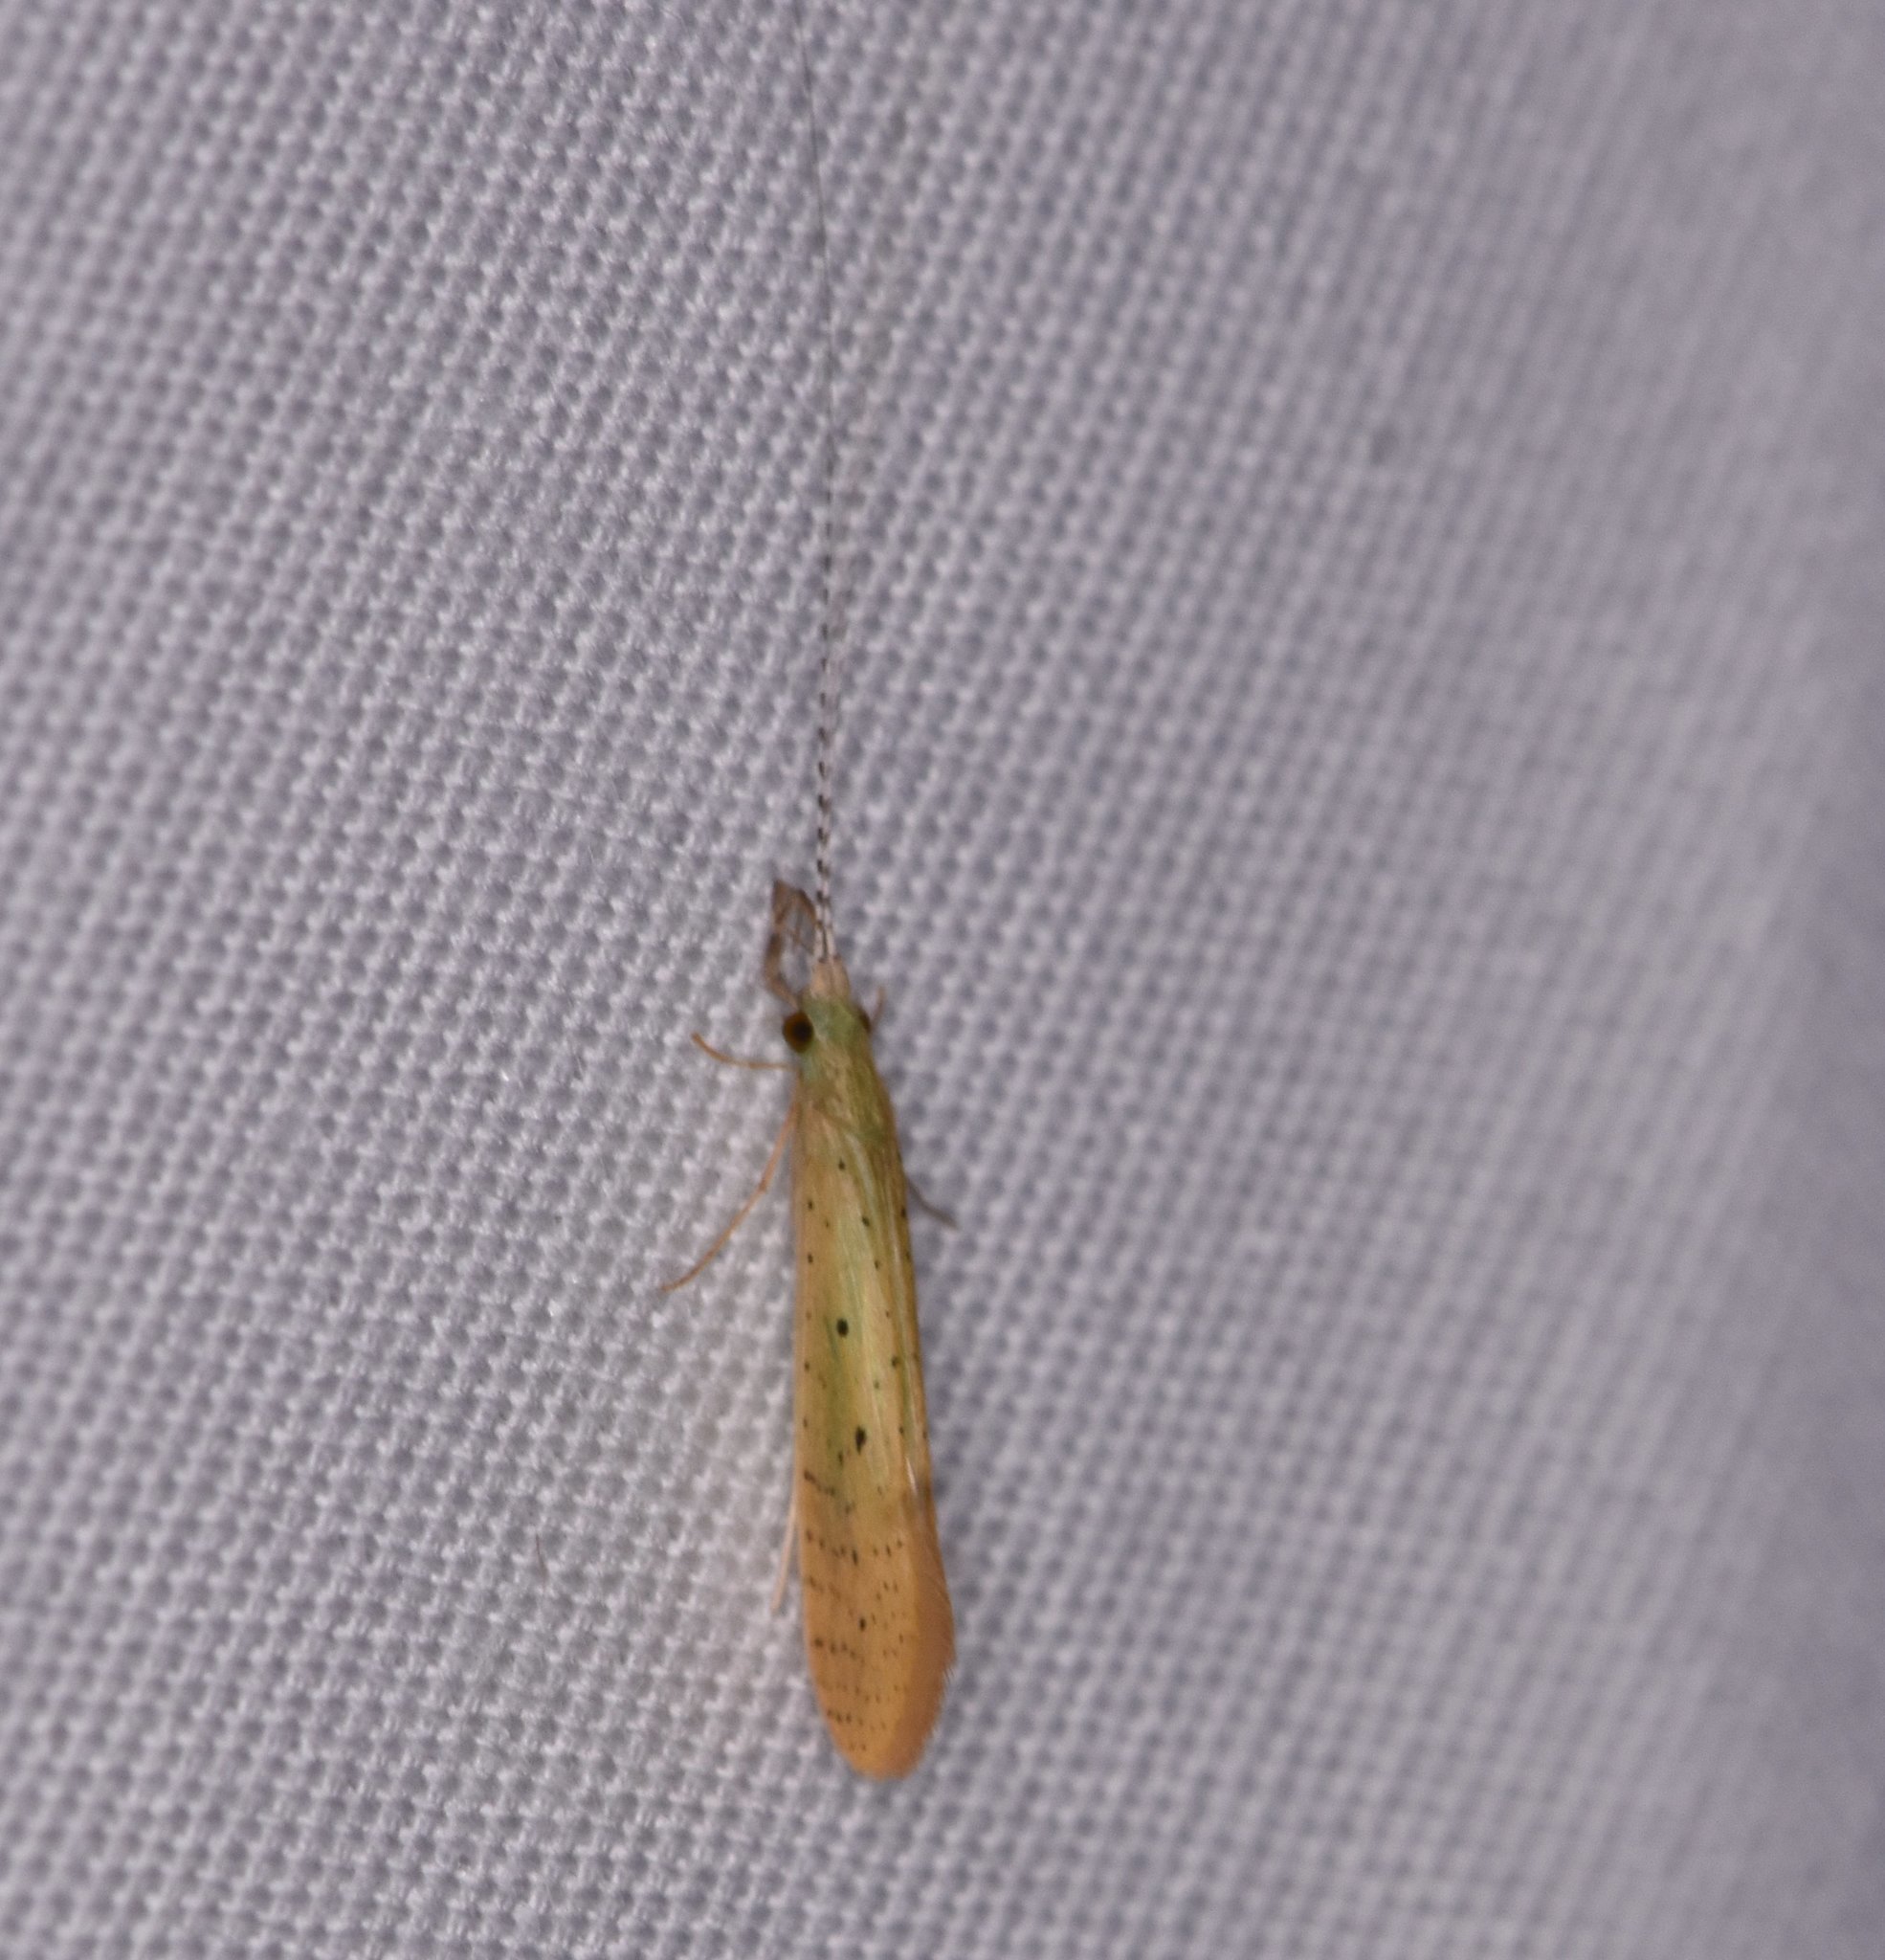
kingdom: Animalia
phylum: Arthropoda
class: Insecta
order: Trichoptera
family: Leptoceridae
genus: Nectopsyche
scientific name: Nectopsyche pavida
